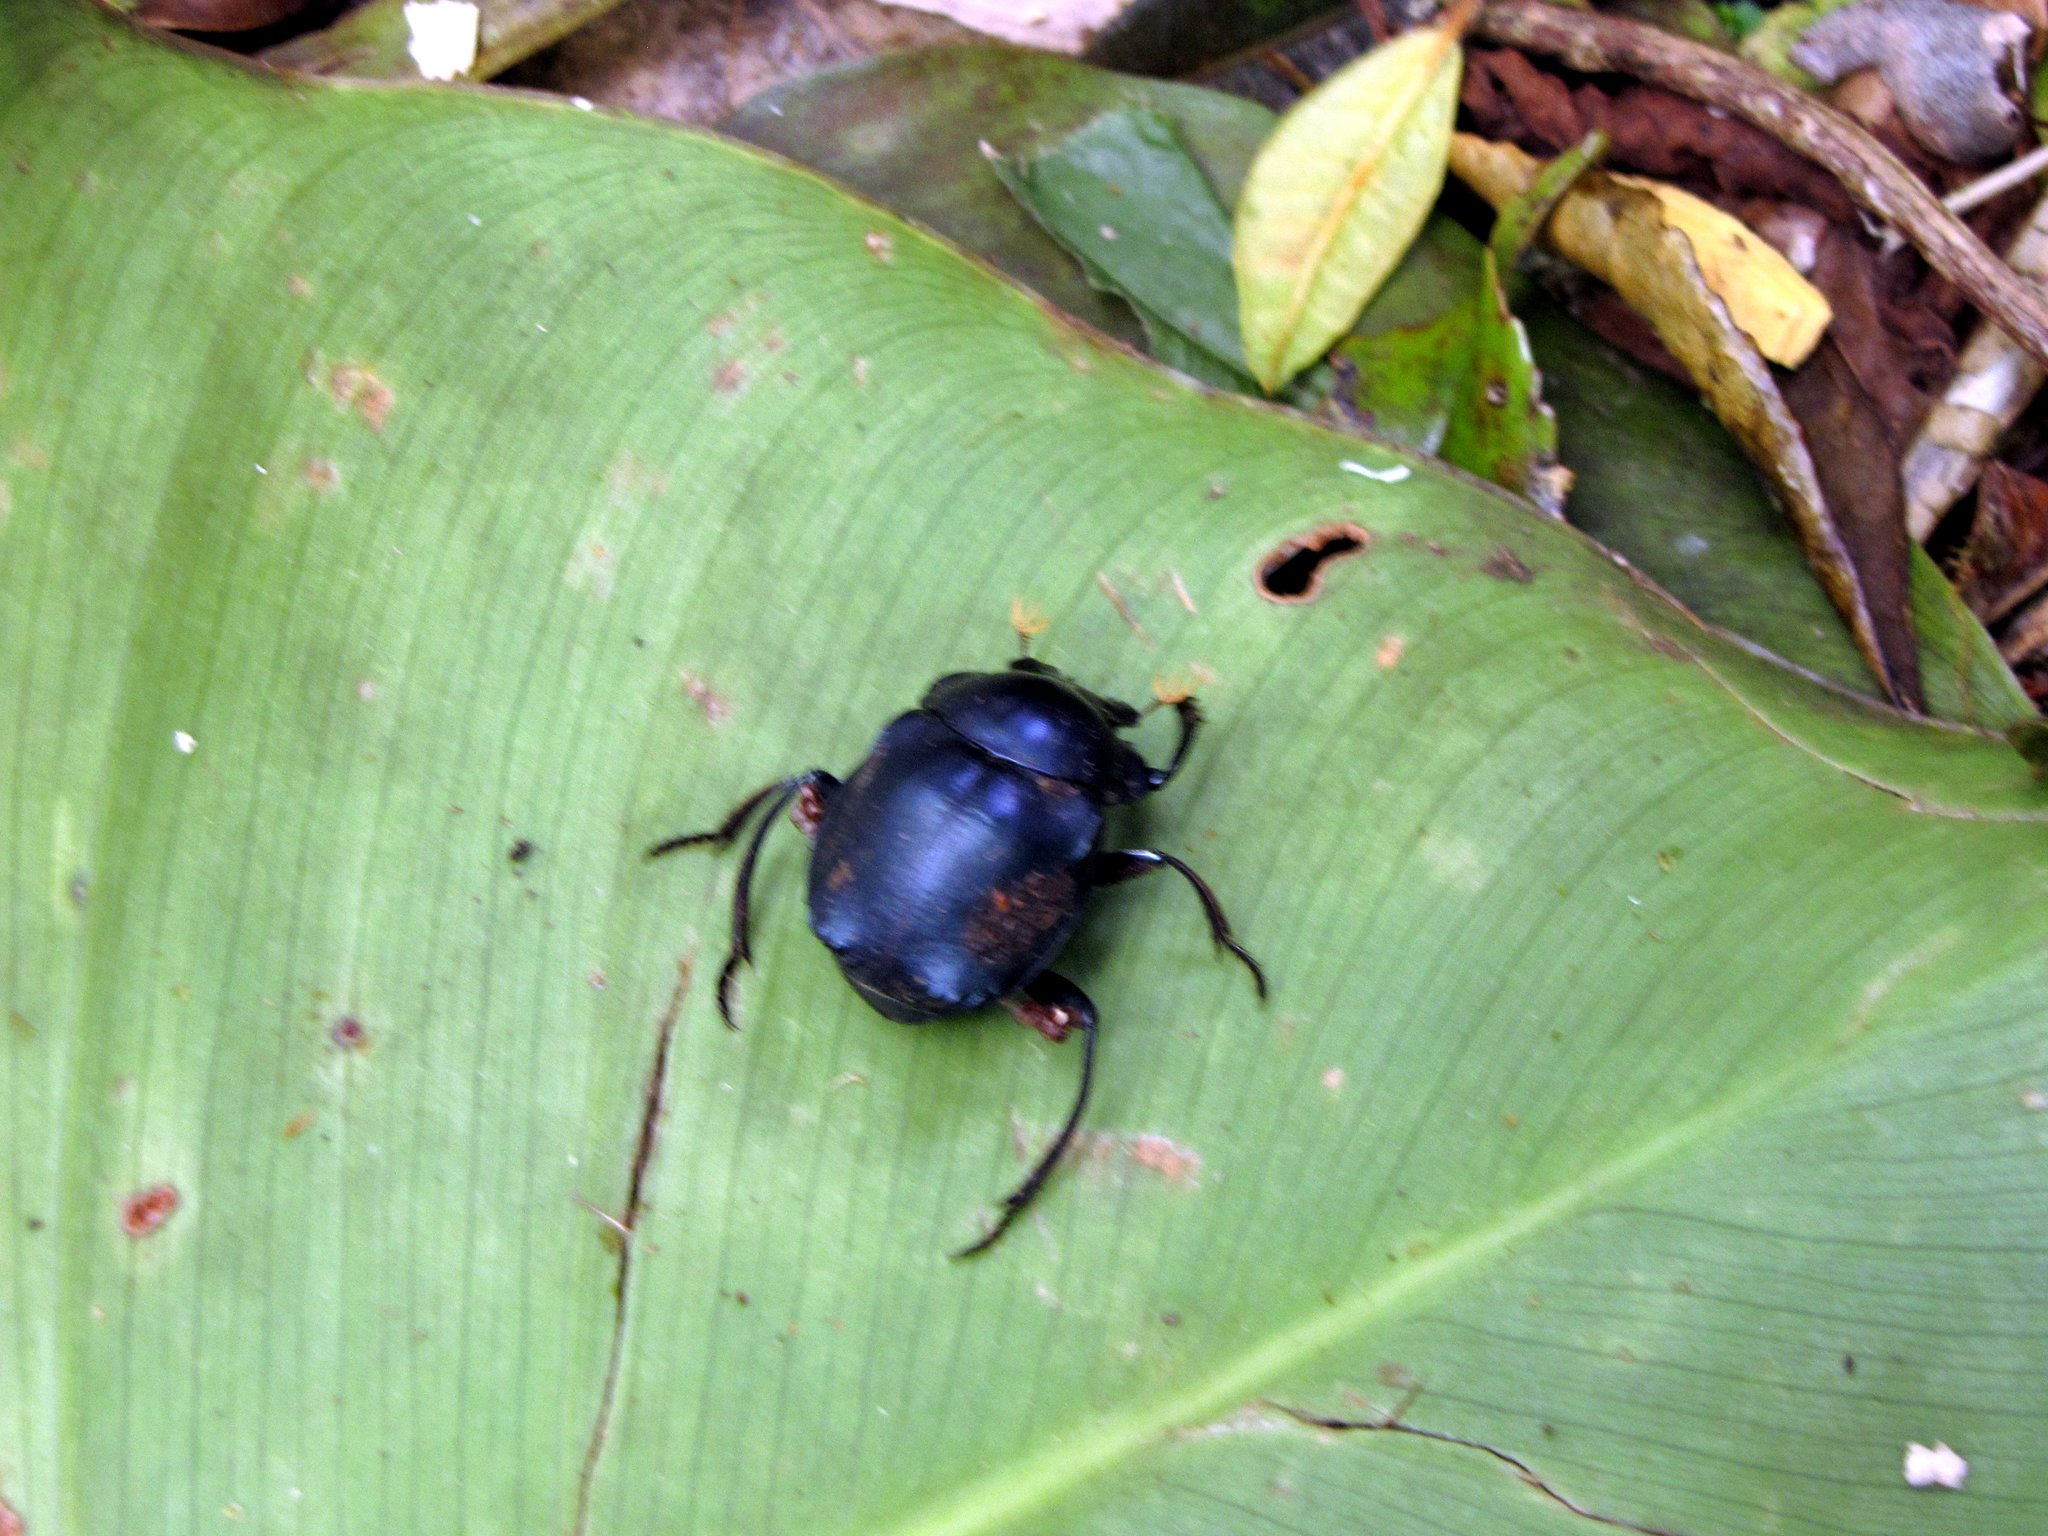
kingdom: Animalia
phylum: Arthropoda
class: Insecta
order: Coleoptera
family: Scarabaeidae
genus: Deltochilum
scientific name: Deltochilum burmeisteri
